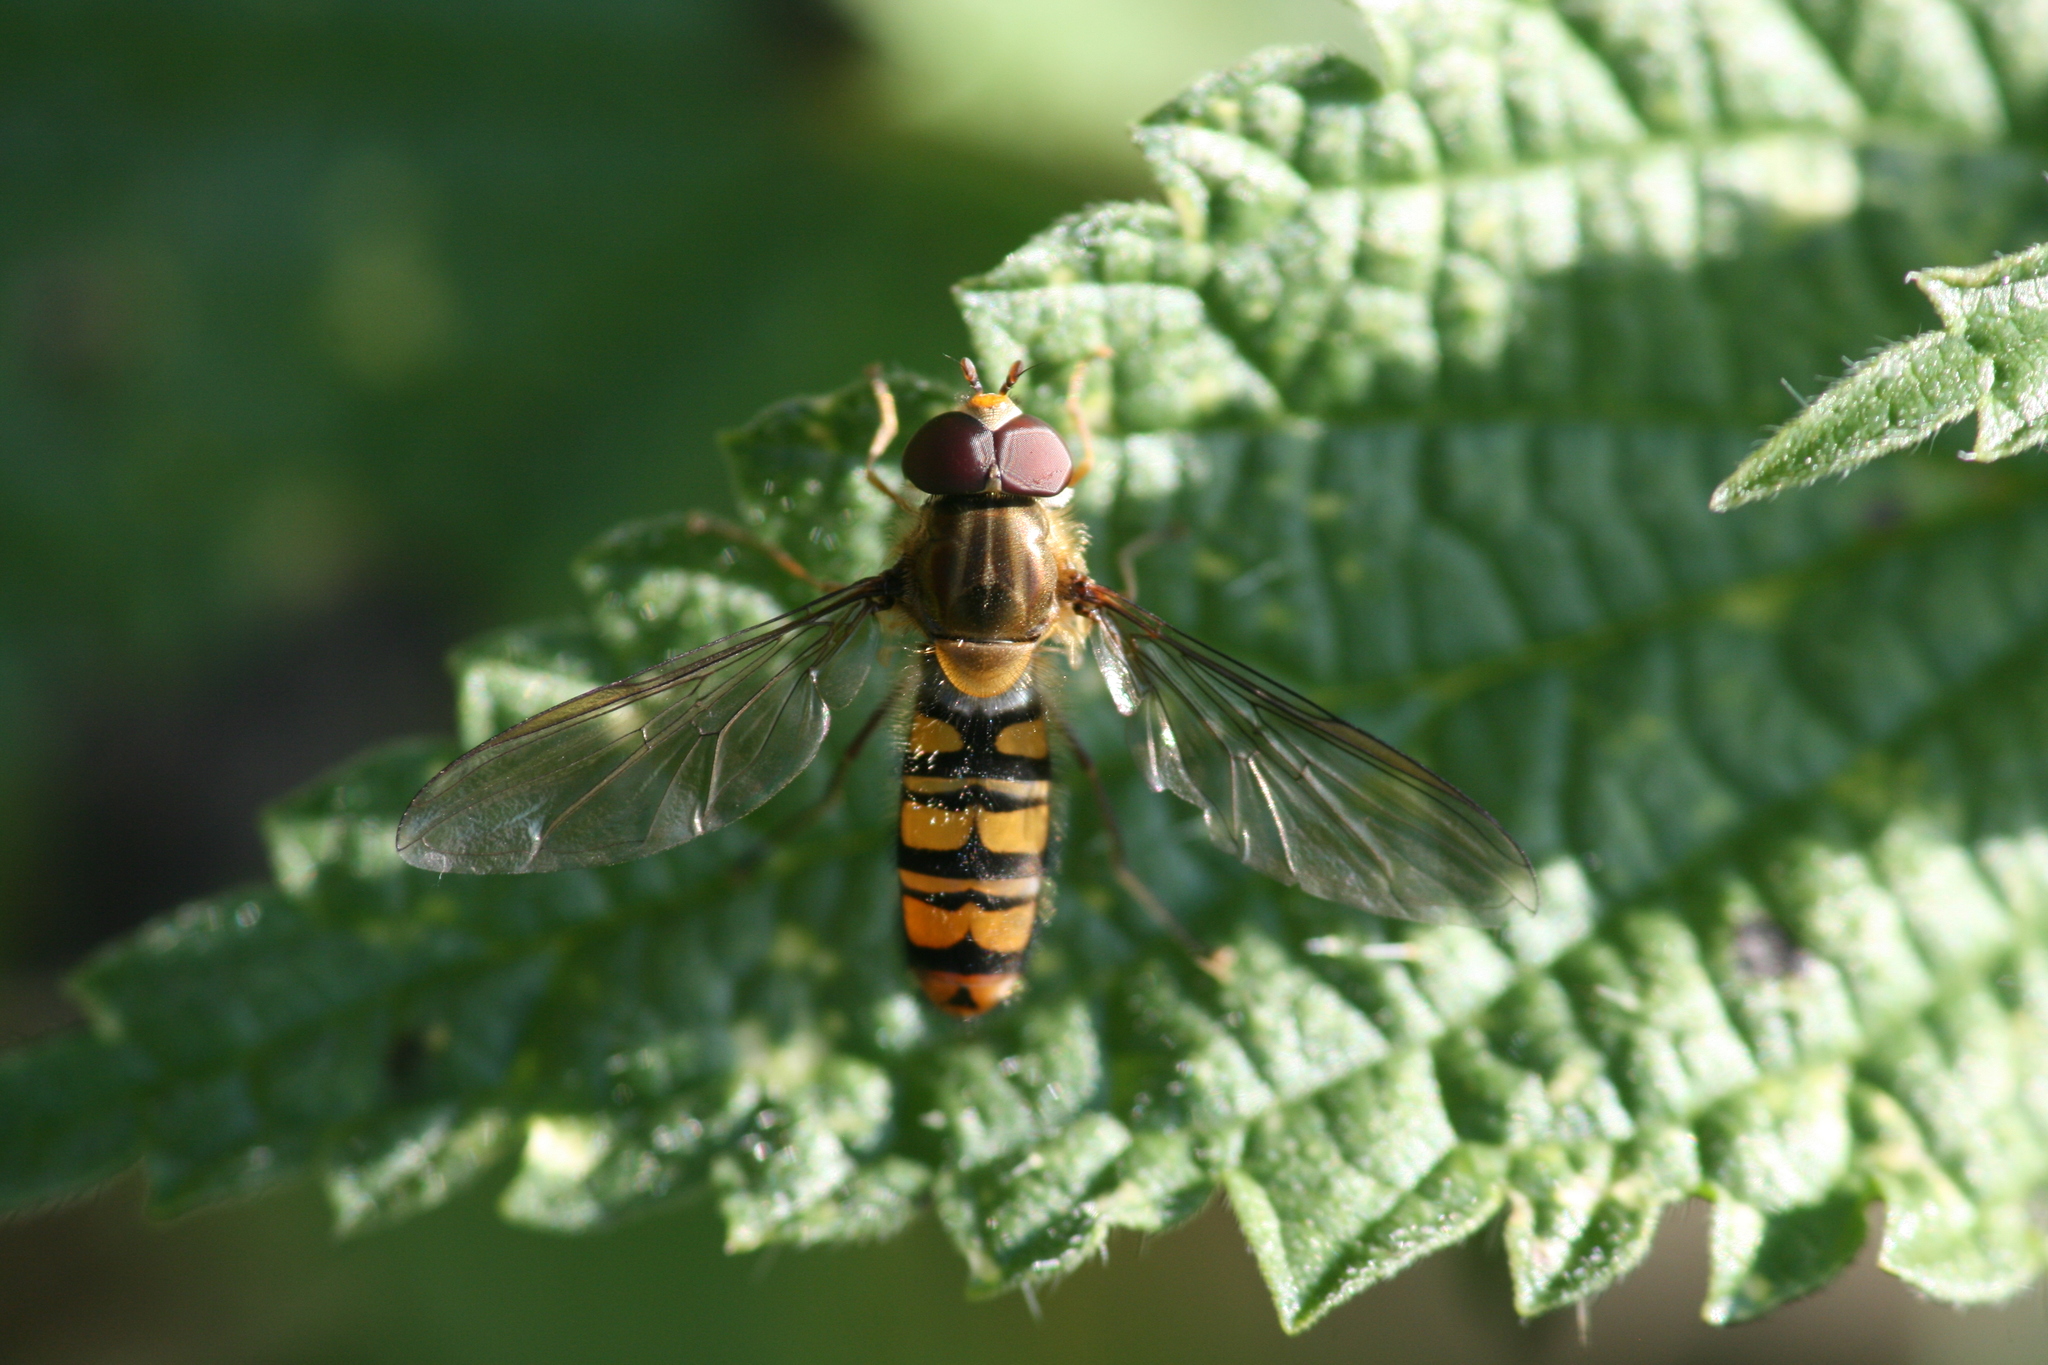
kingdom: Animalia
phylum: Arthropoda
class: Insecta
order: Diptera
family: Syrphidae
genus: Episyrphus
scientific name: Episyrphus balteatus
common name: Marmalade hoverfly
